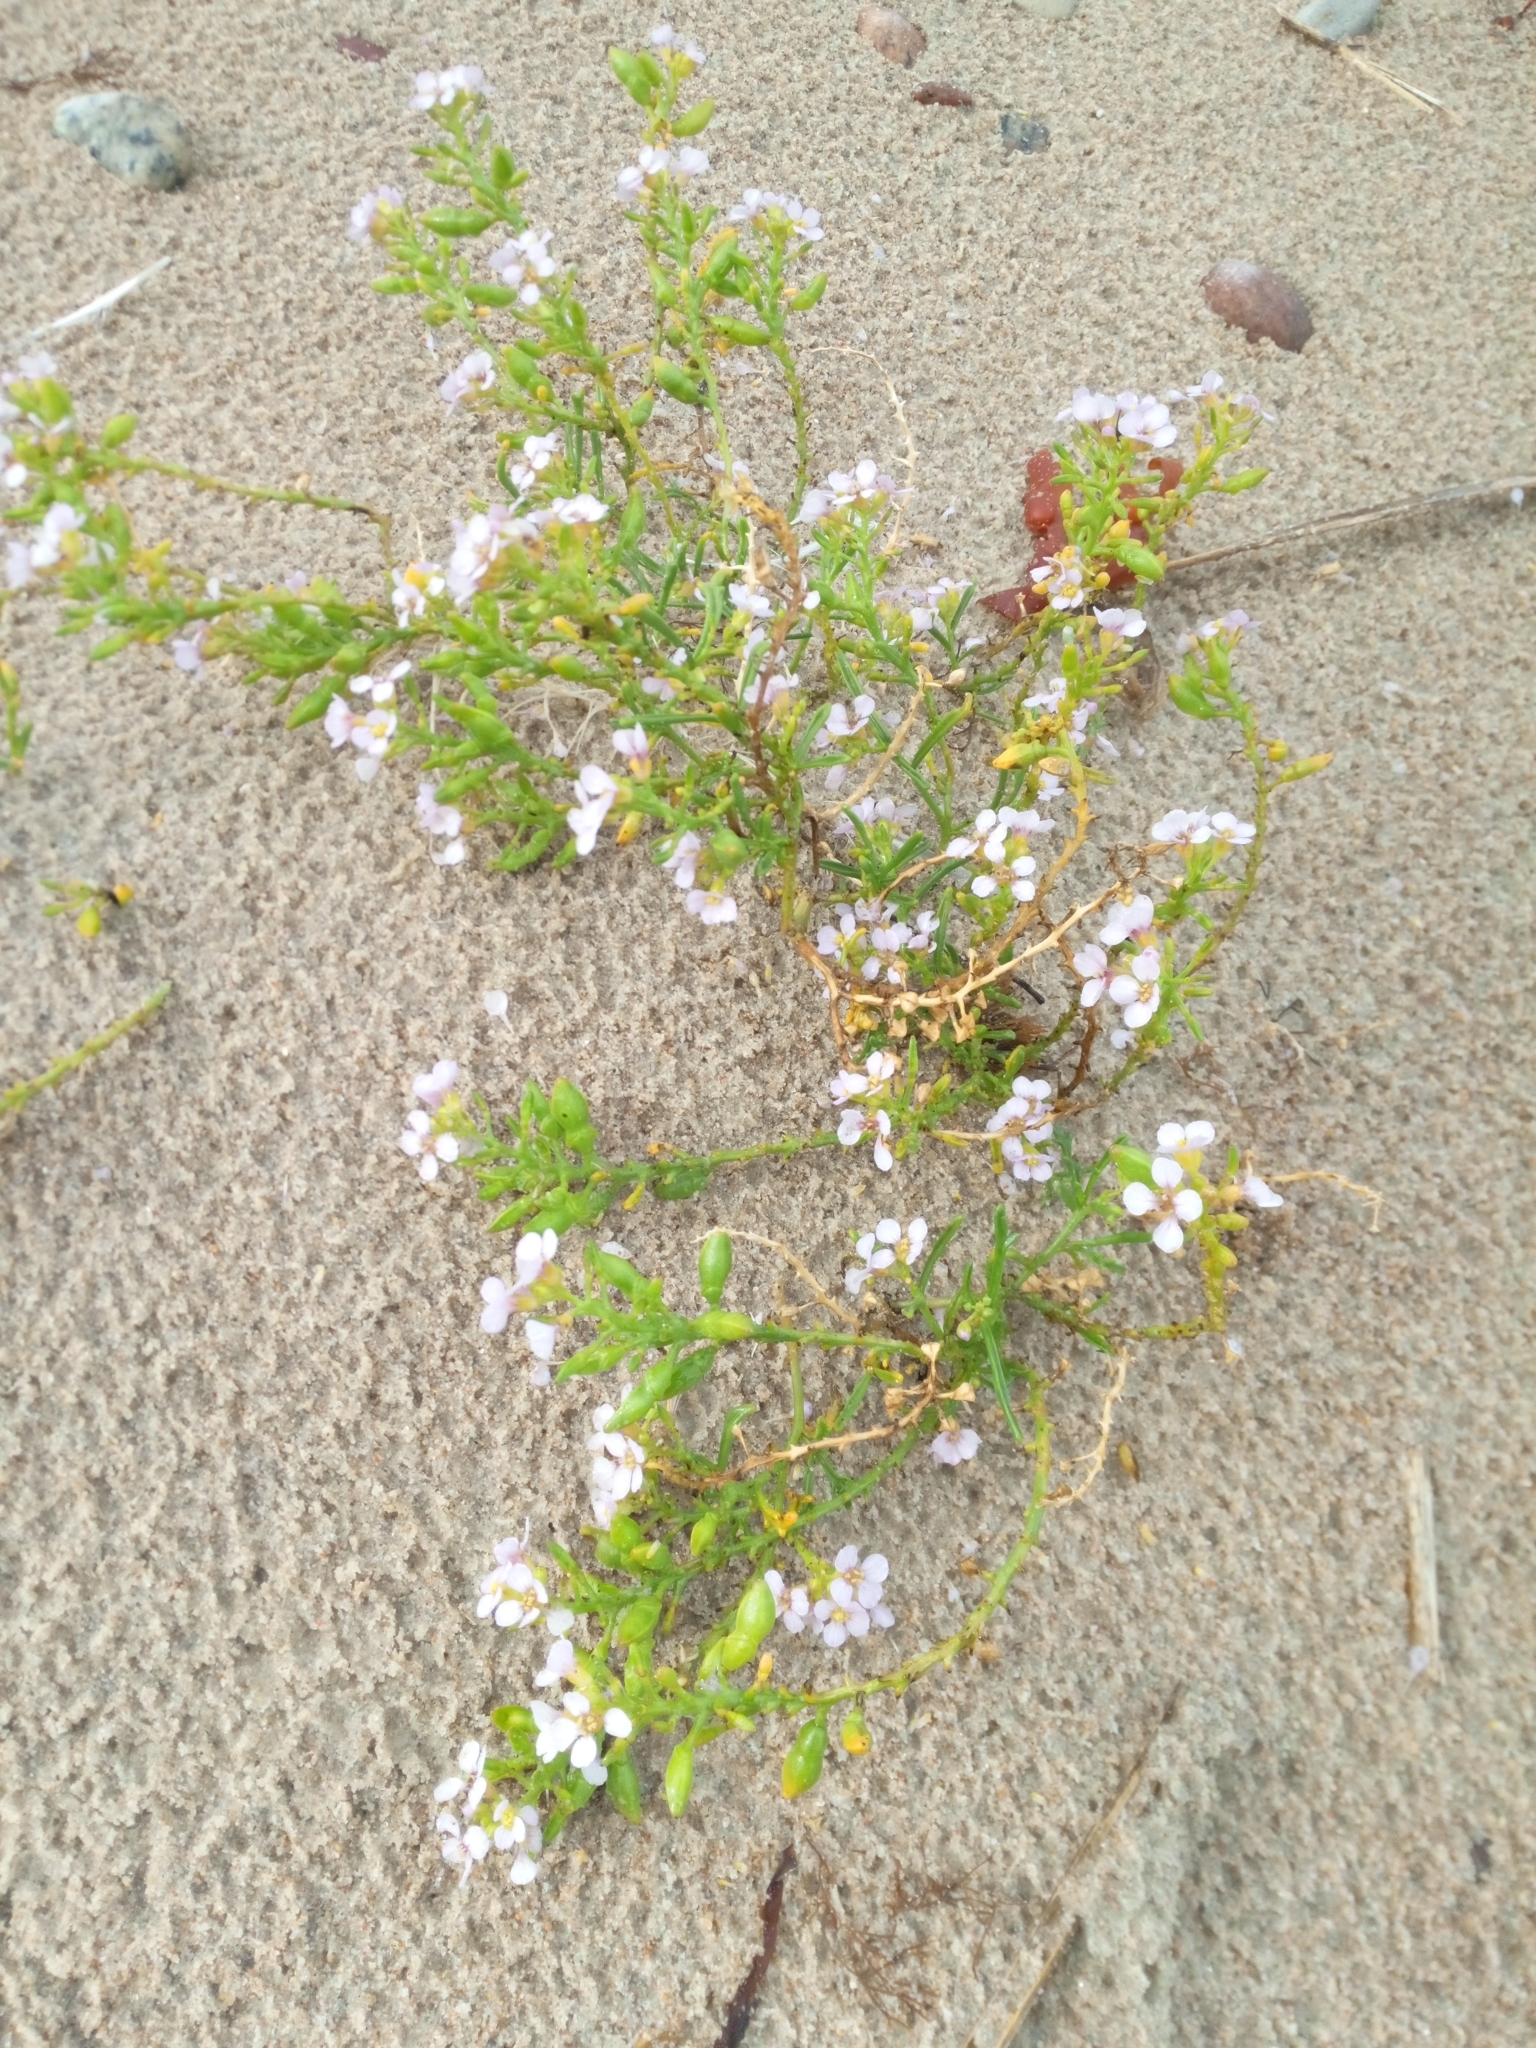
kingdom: Plantae
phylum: Tracheophyta
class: Magnoliopsida
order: Brassicales
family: Brassicaceae
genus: Cakile
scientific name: Cakile maritima
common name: Sea rocket
